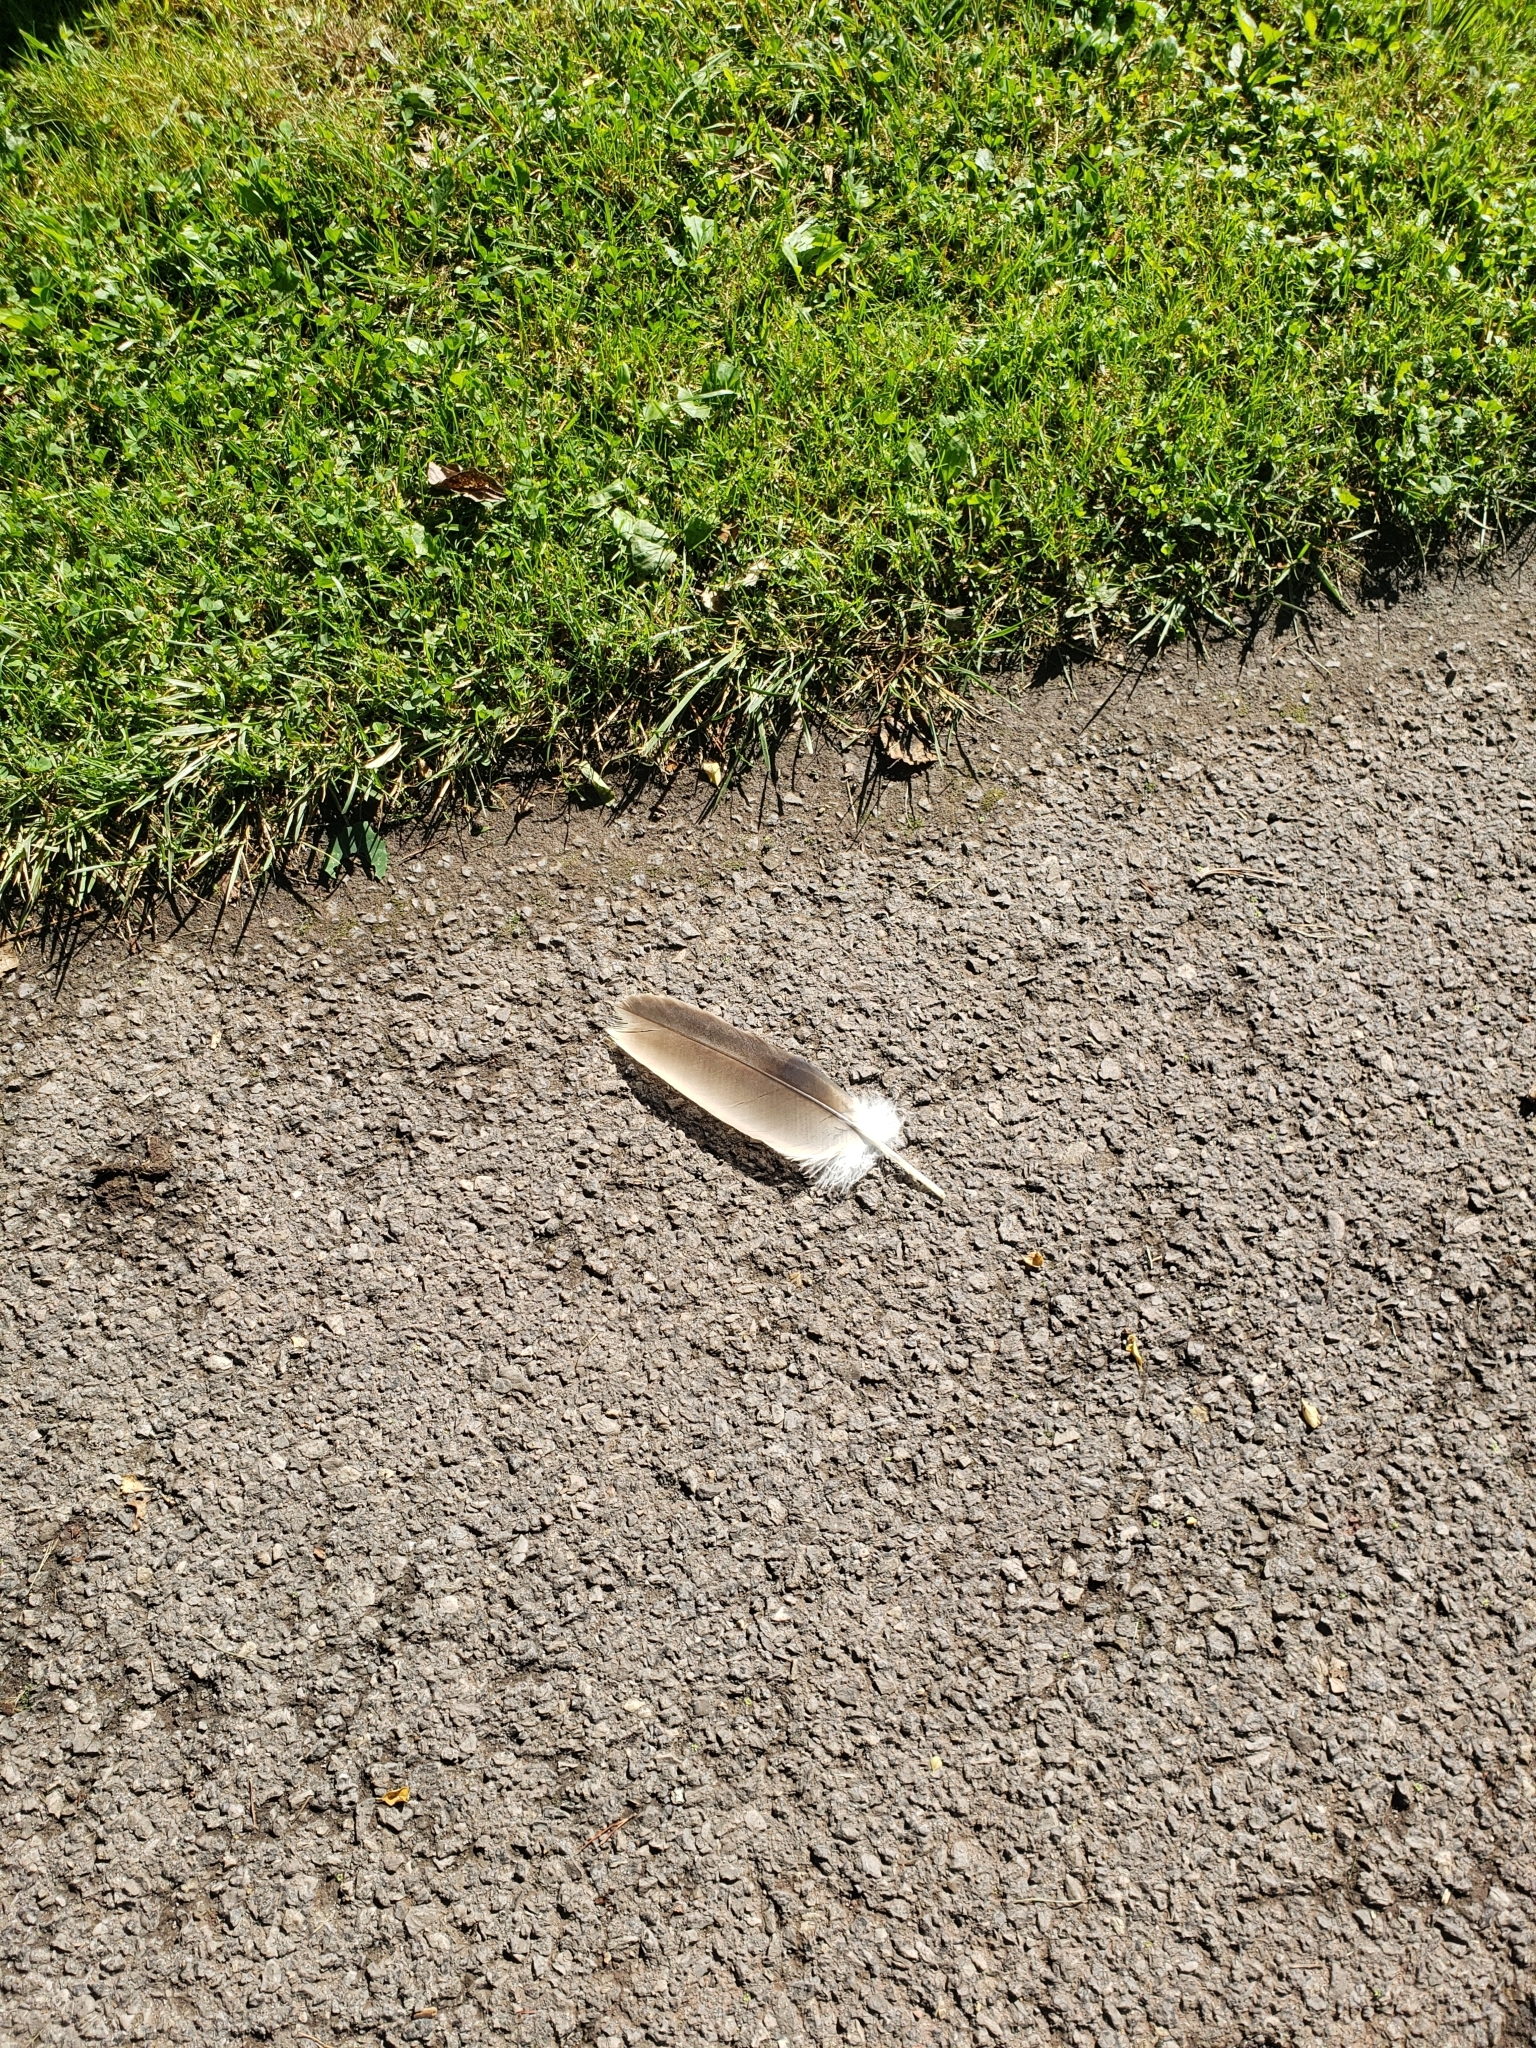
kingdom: Animalia
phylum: Chordata
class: Aves
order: Accipitriformes
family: Cathartidae
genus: Cathartes
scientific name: Cathartes aura
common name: Turkey vulture
